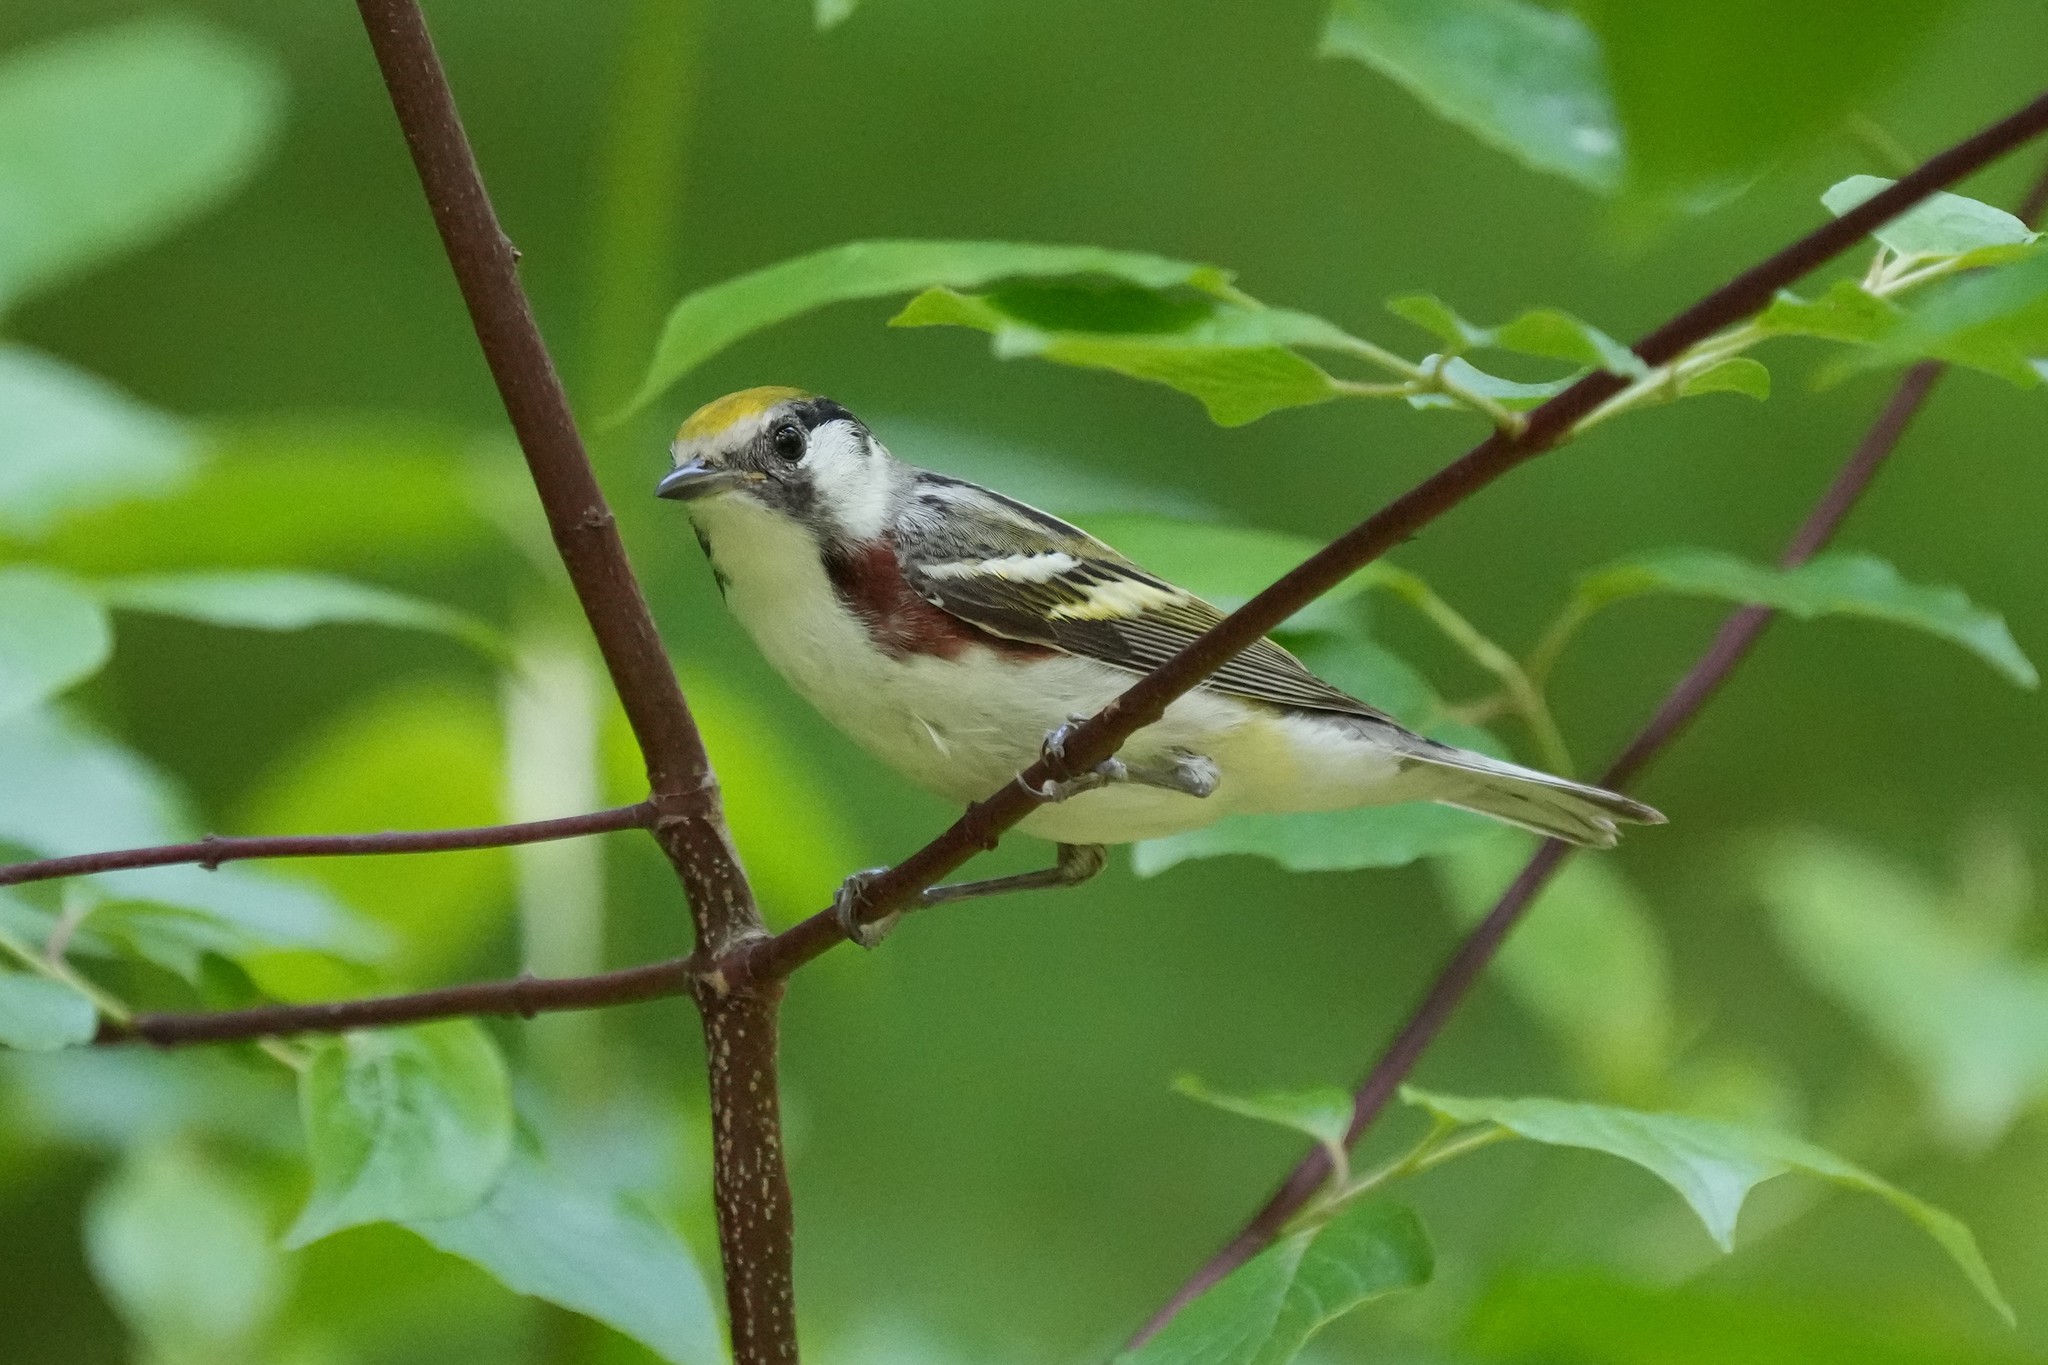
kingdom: Animalia
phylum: Chordata
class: Aves
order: Passeriformes
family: Parulidae
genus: Setophaga
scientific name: Setophaga pensylvanica
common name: Chestnut-sided warbler
